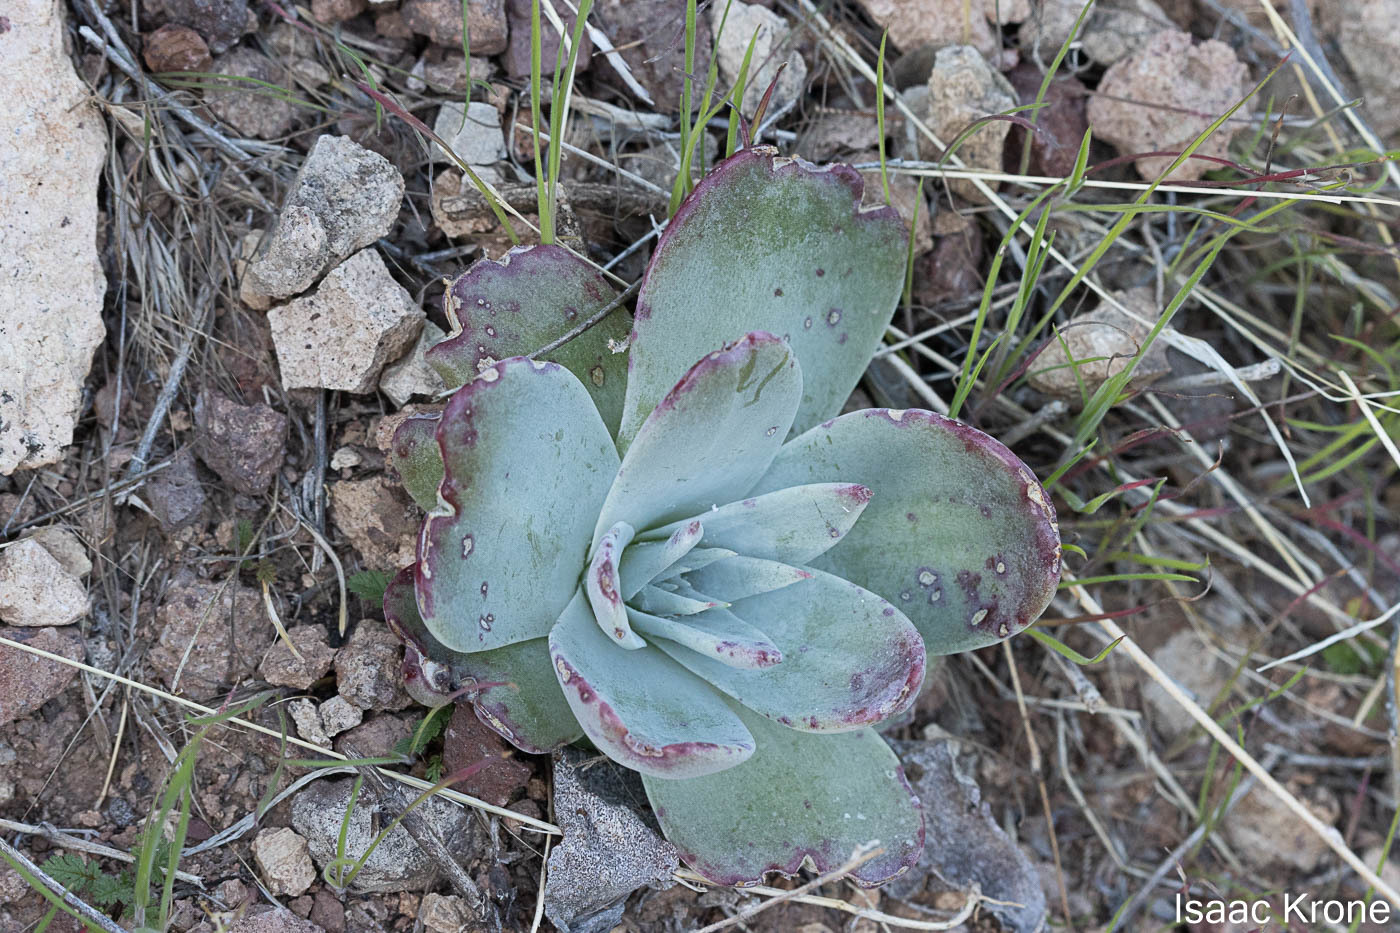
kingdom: Plantae
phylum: Tracheophyta
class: Magnoliopsida
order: Saxifragales
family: Crassulaceae
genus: Dudleya
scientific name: Dudleya arizonica
